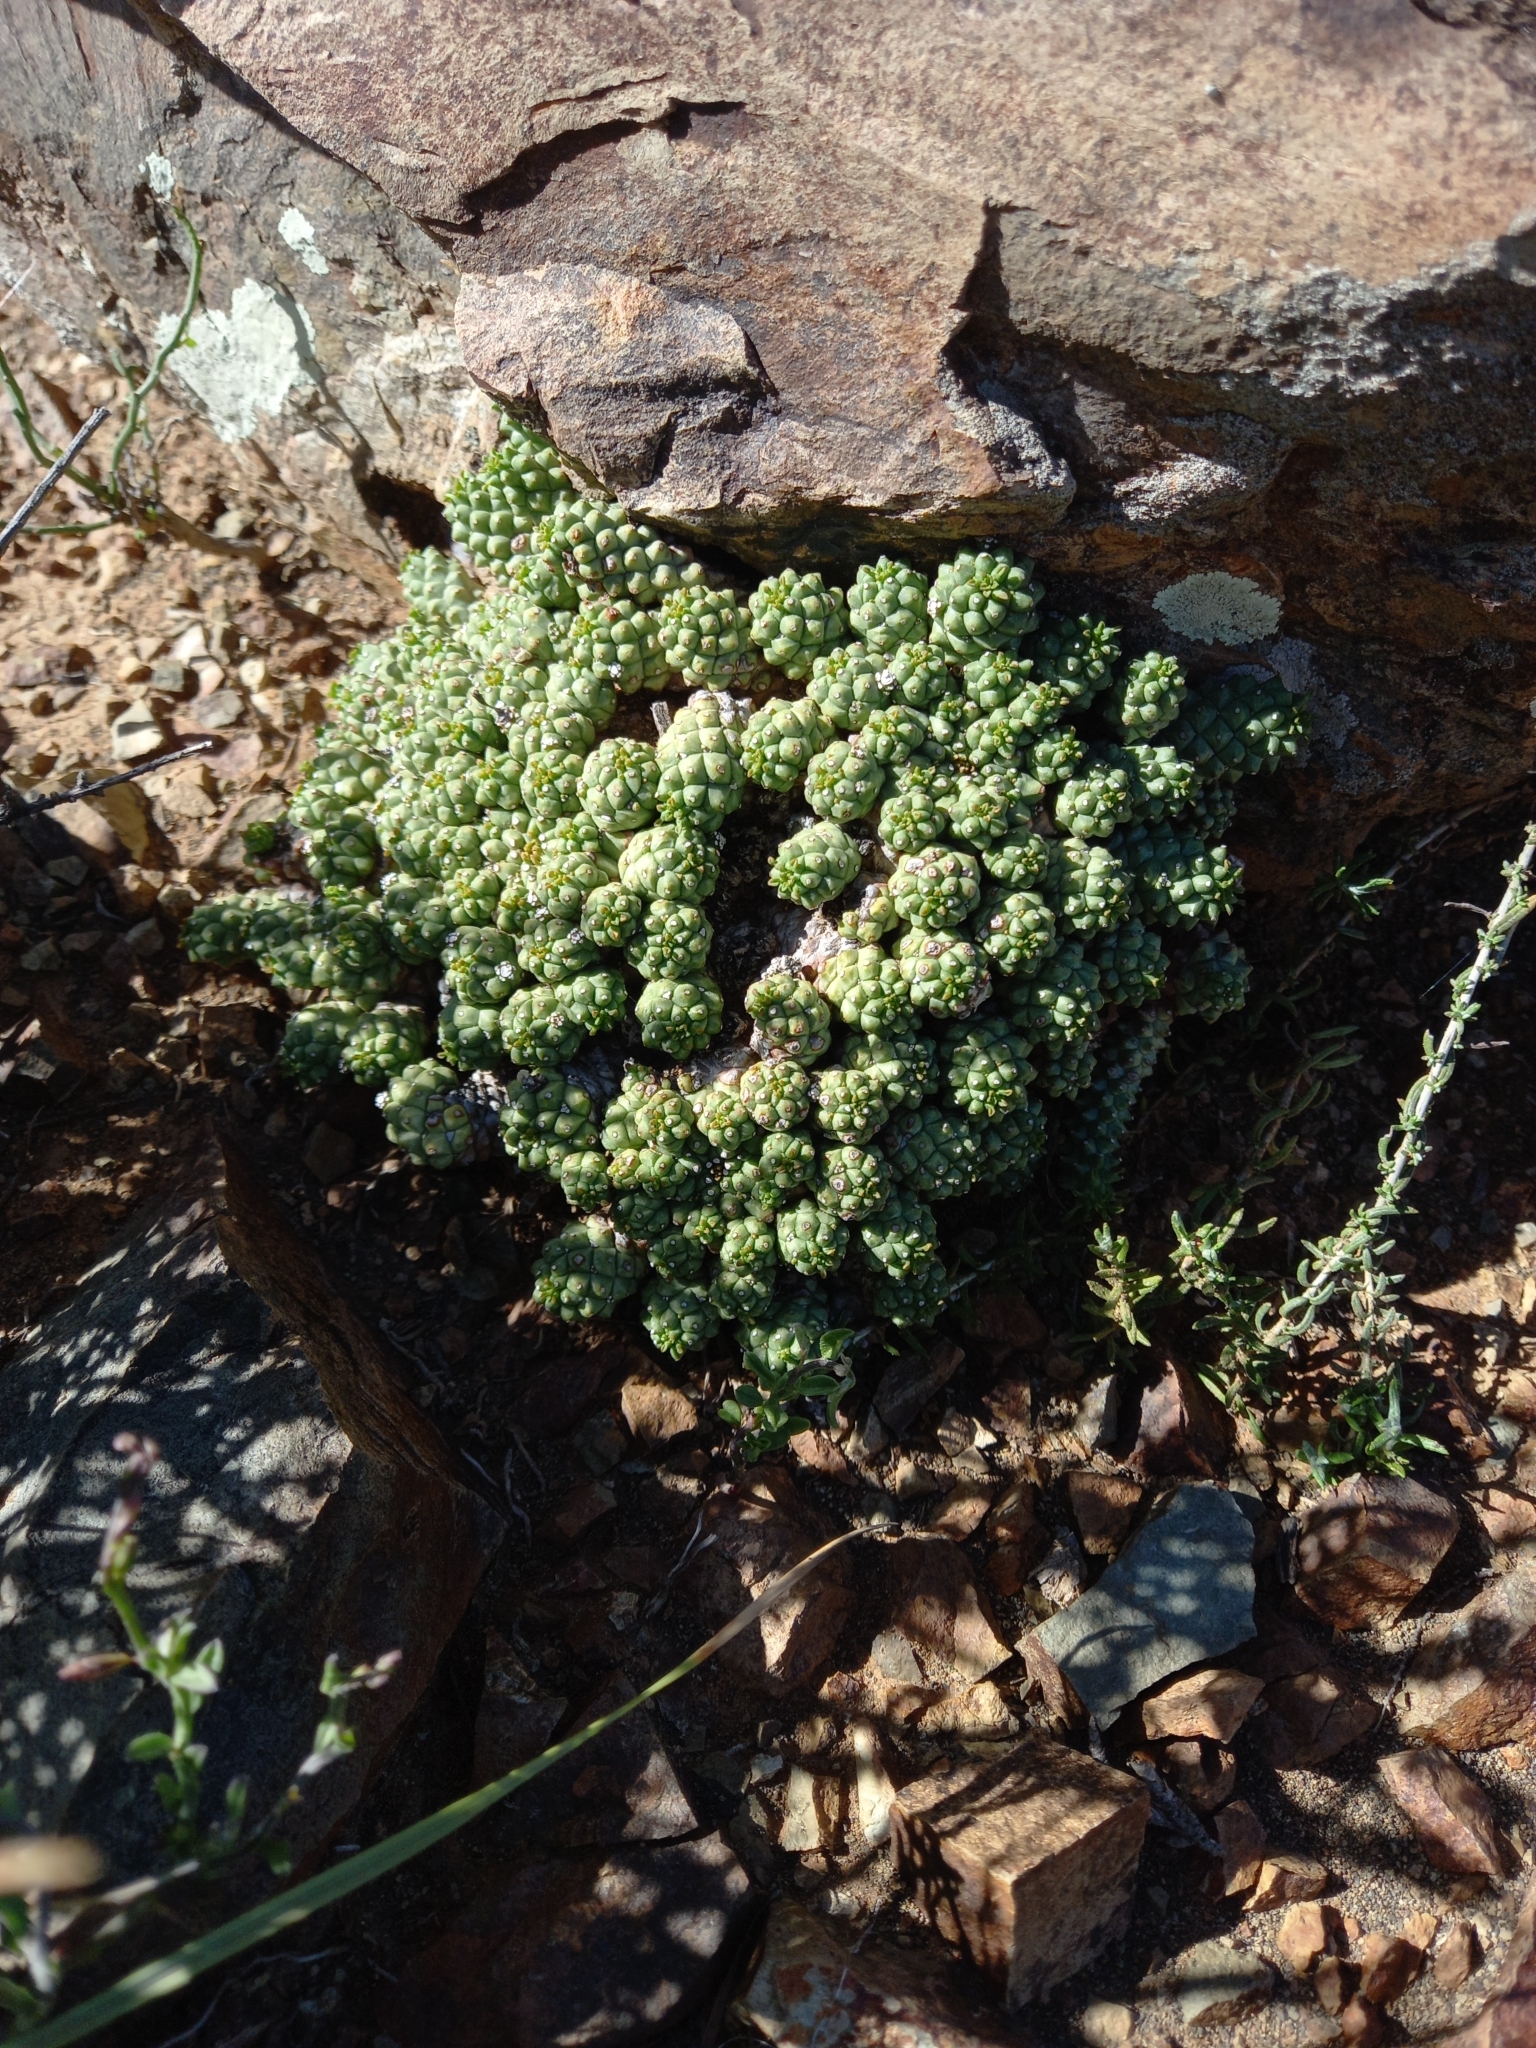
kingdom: Plantae
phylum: Tracheophyta
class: Magnoliopsida
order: Malpighiales
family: Euphorbiaceae
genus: Euphorbia
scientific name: Euphorbia clavarioides
